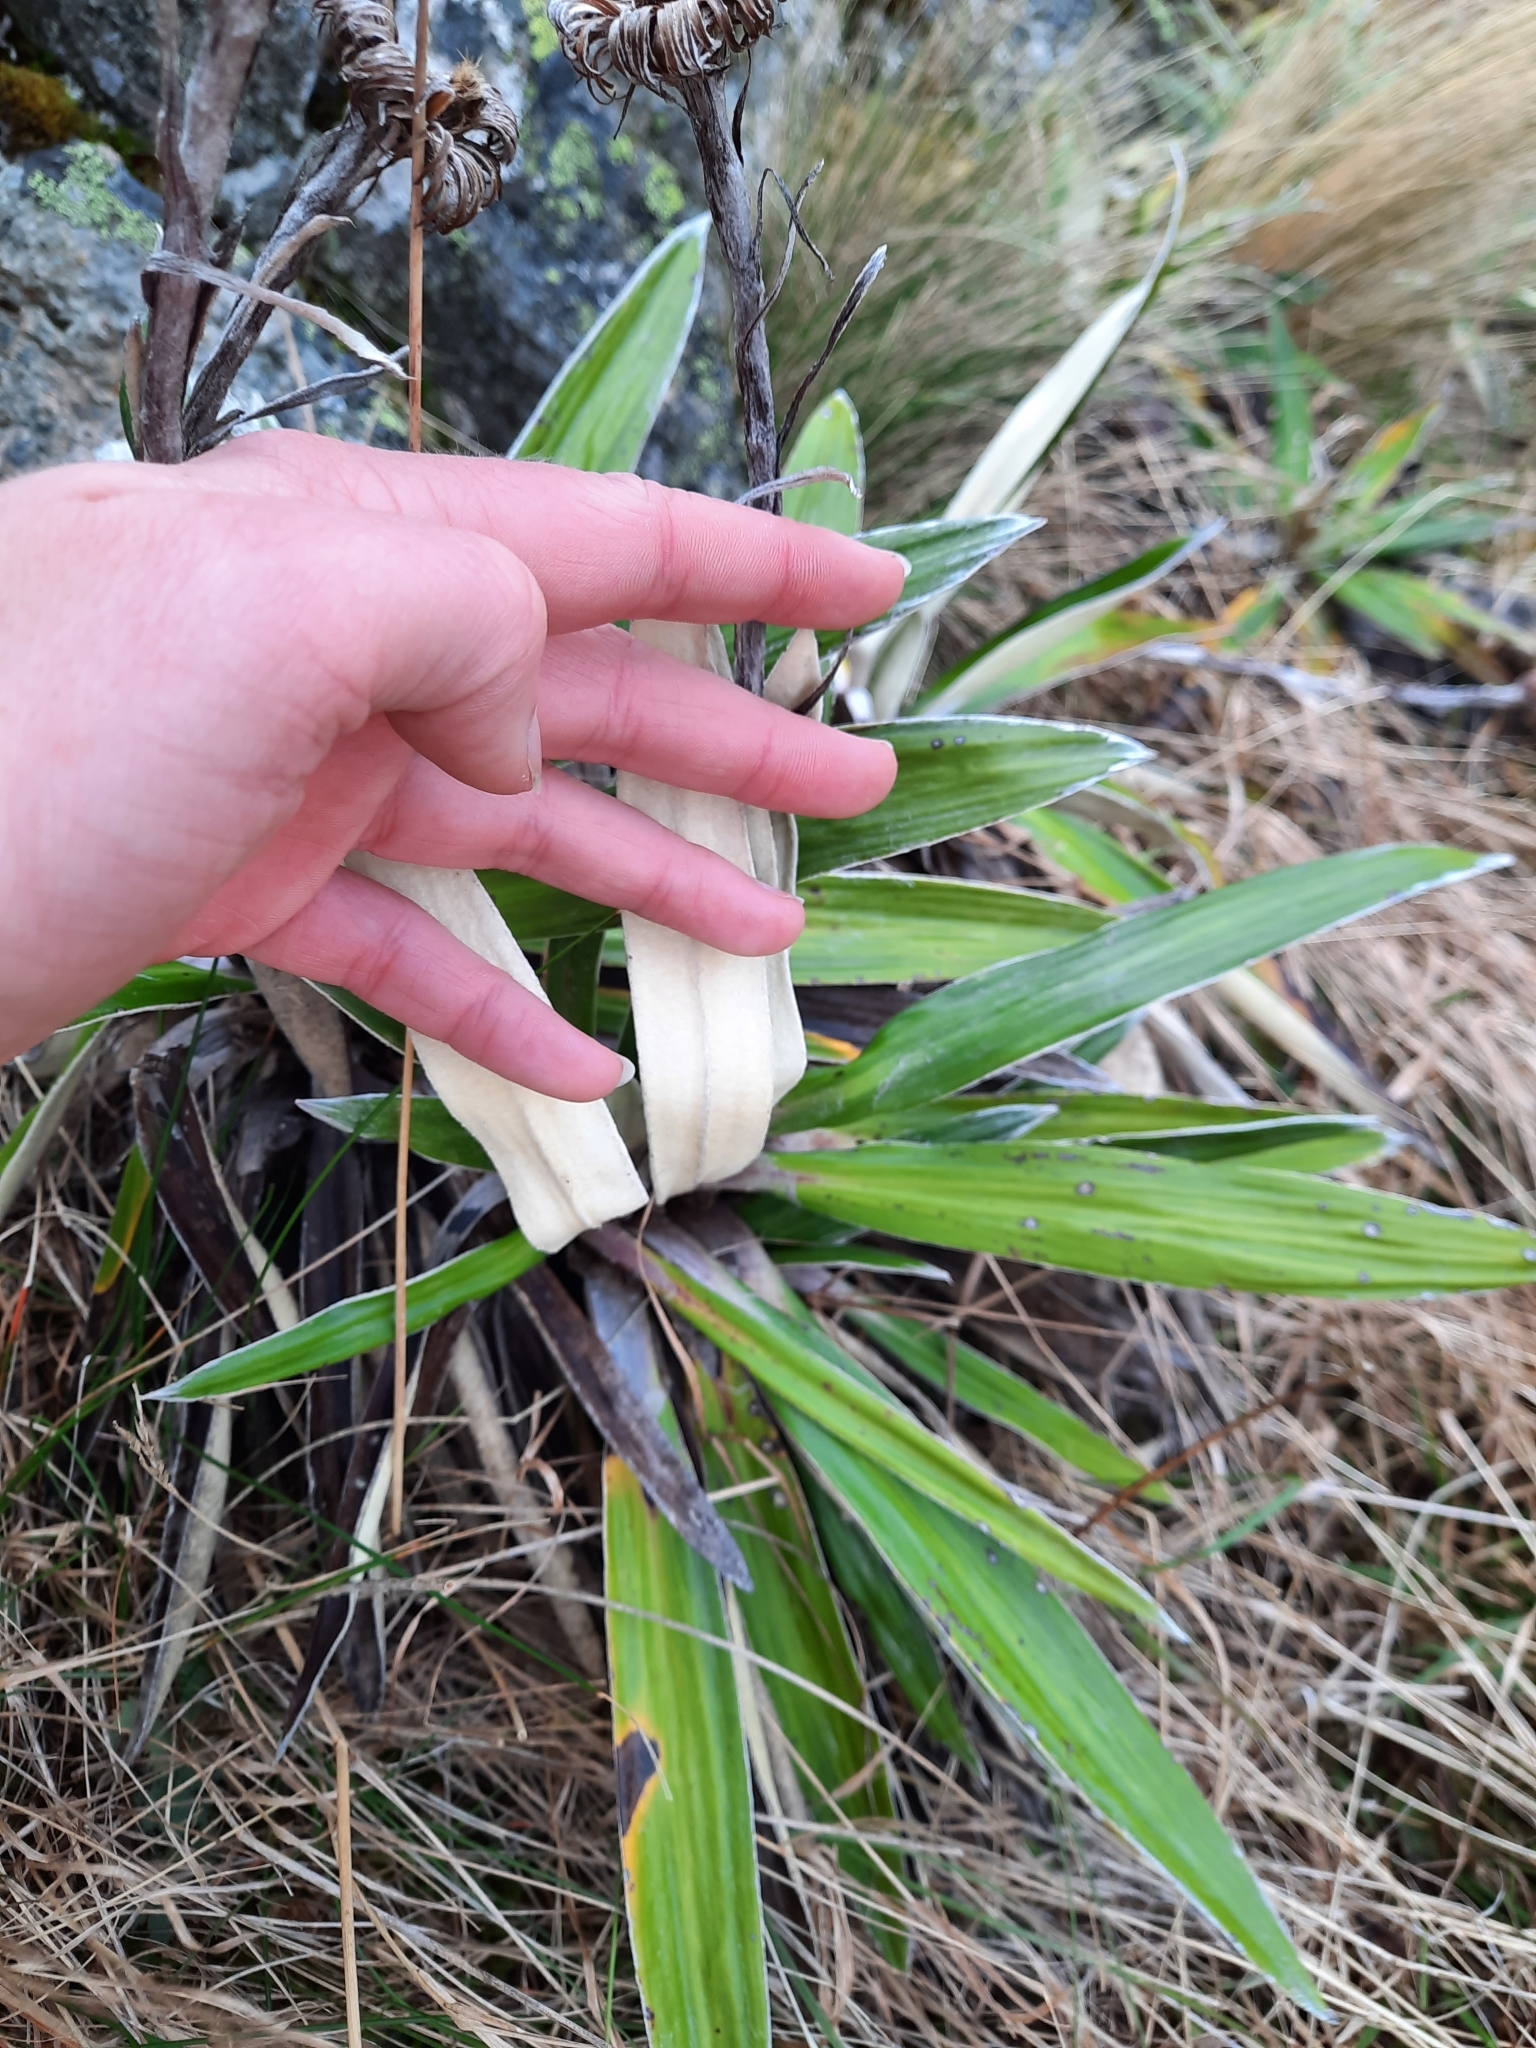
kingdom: Plantae
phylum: Tracheophyta
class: Magnoliopsida
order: Asterales
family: Asteraceae
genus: Celmisia
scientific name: Celmisia spectabilis
